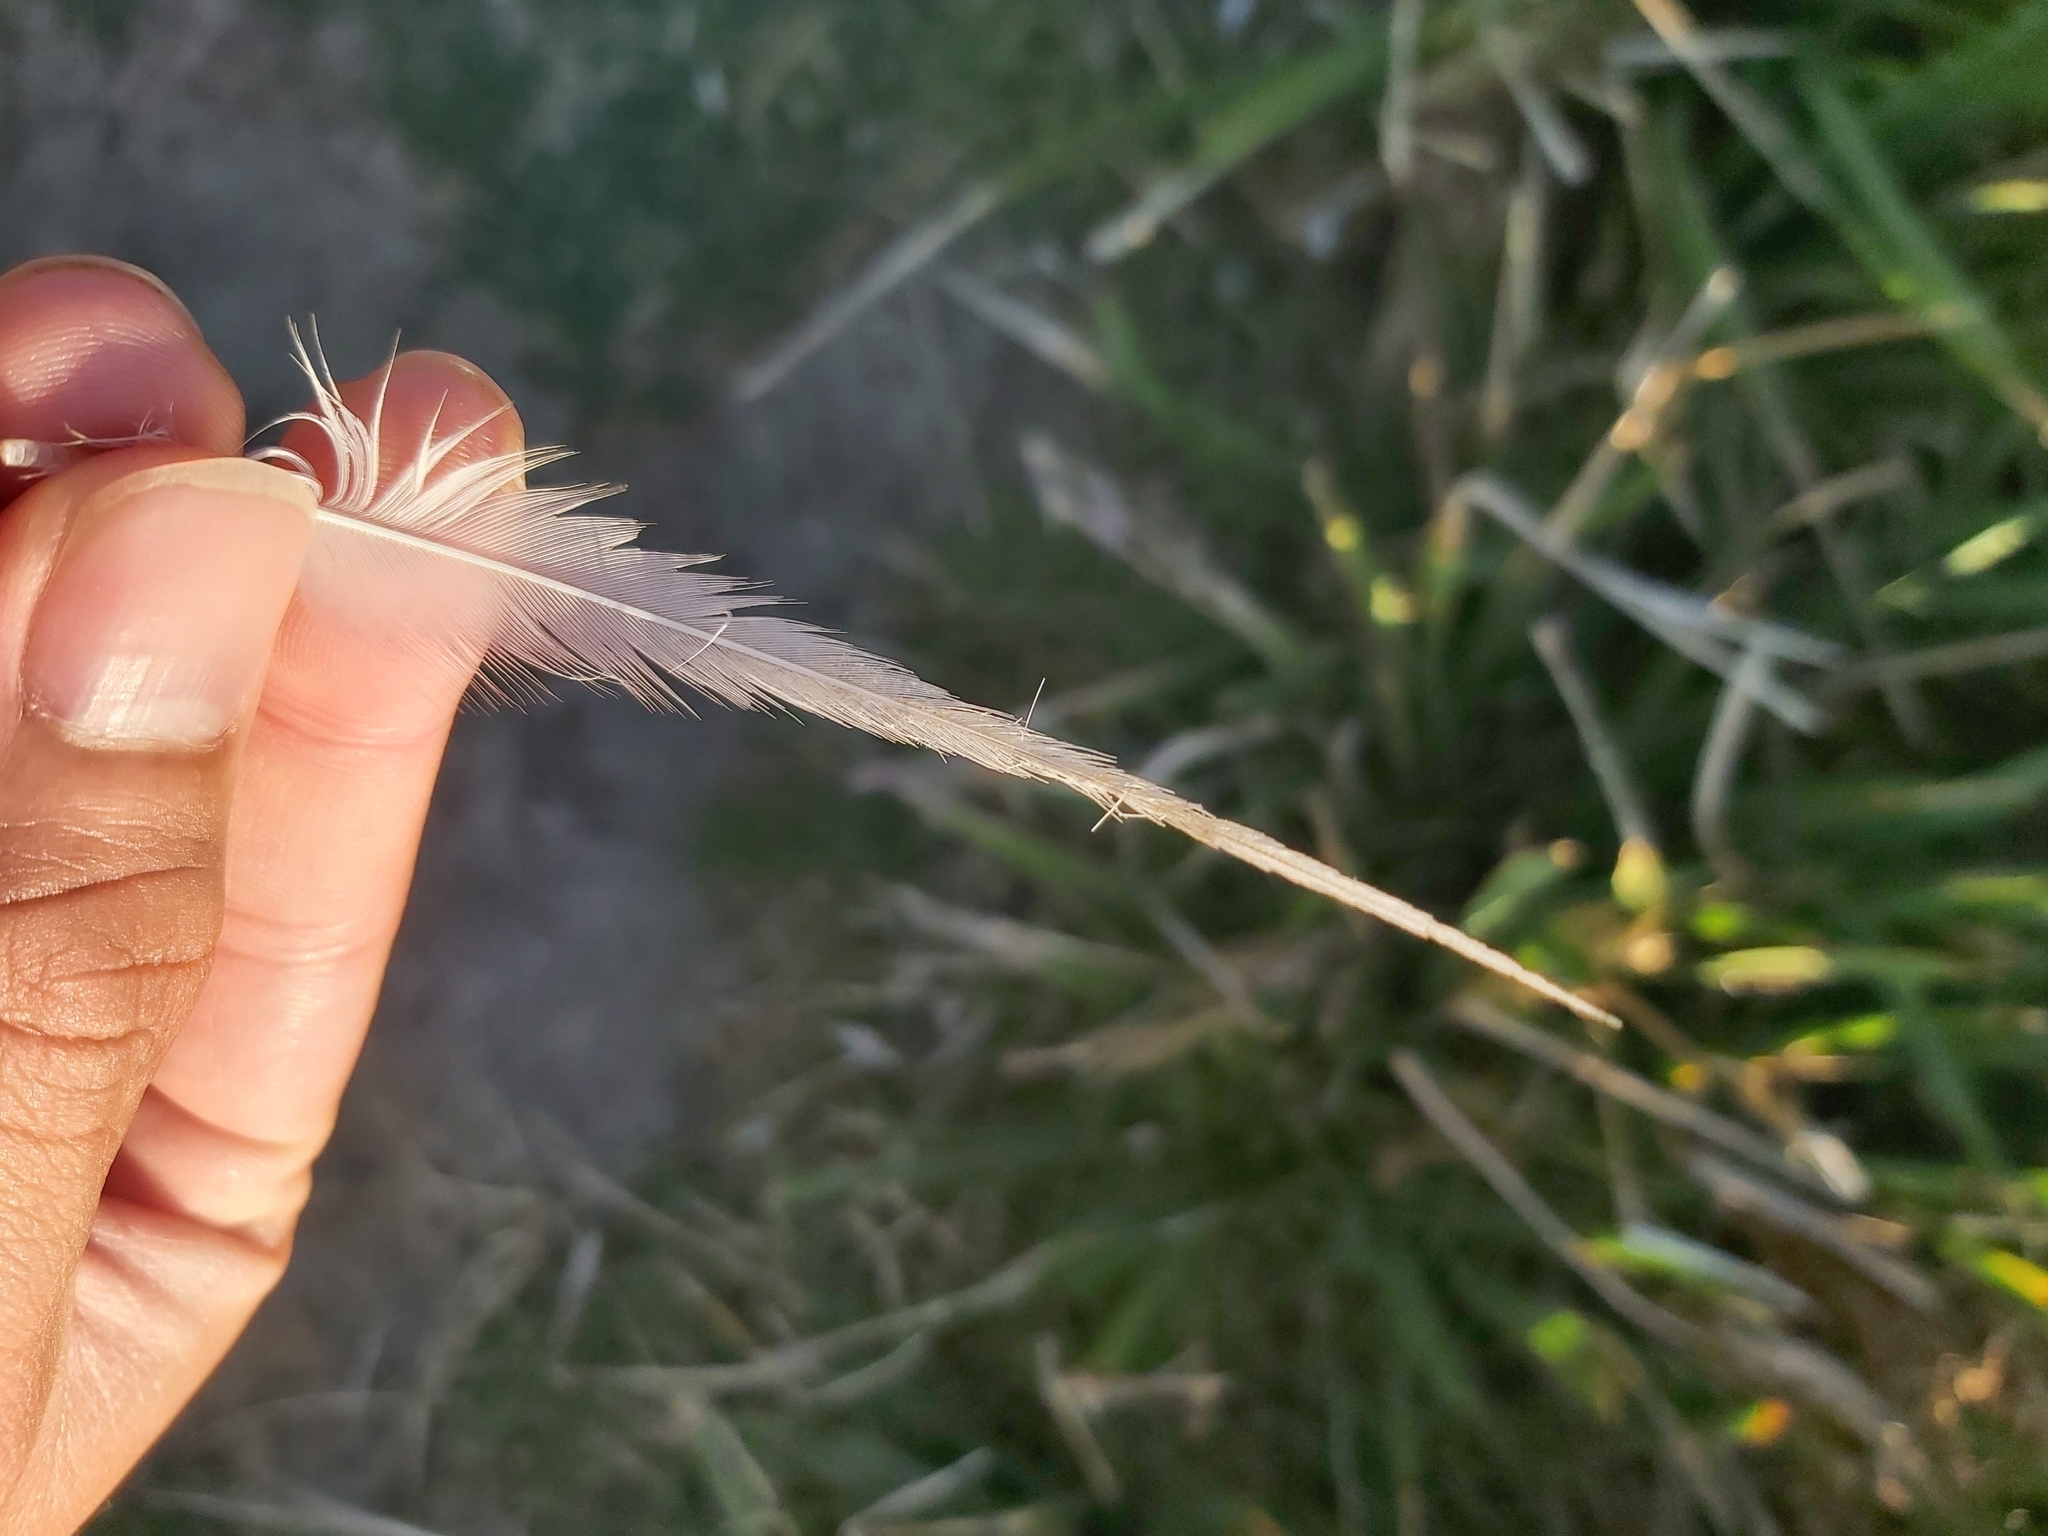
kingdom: Animalia
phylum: Chordata
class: Aves
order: Pelecaniformes
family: Pelecanidae
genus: Pelecanus
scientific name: Pelecanus conspicillatus
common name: Australian pelican
